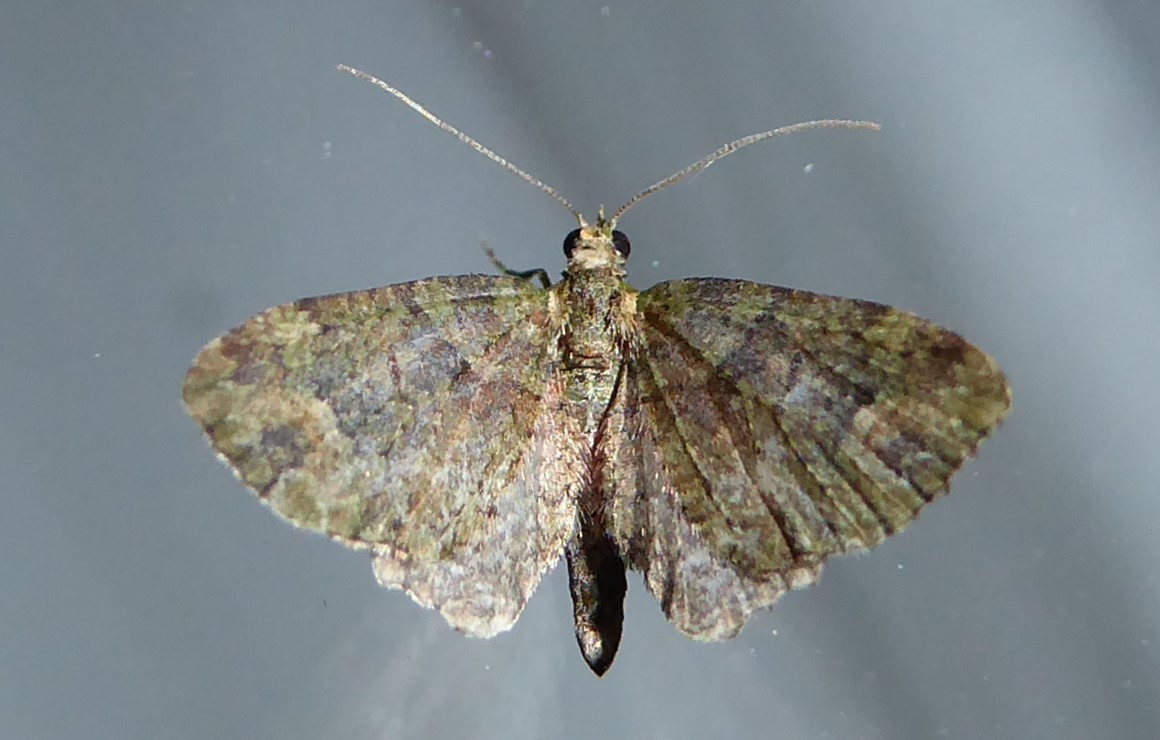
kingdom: Animalia
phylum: Arthropoda
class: Insecta
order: Lepidoptera
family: Geometridae
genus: Idaea
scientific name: Idaea mutanda
